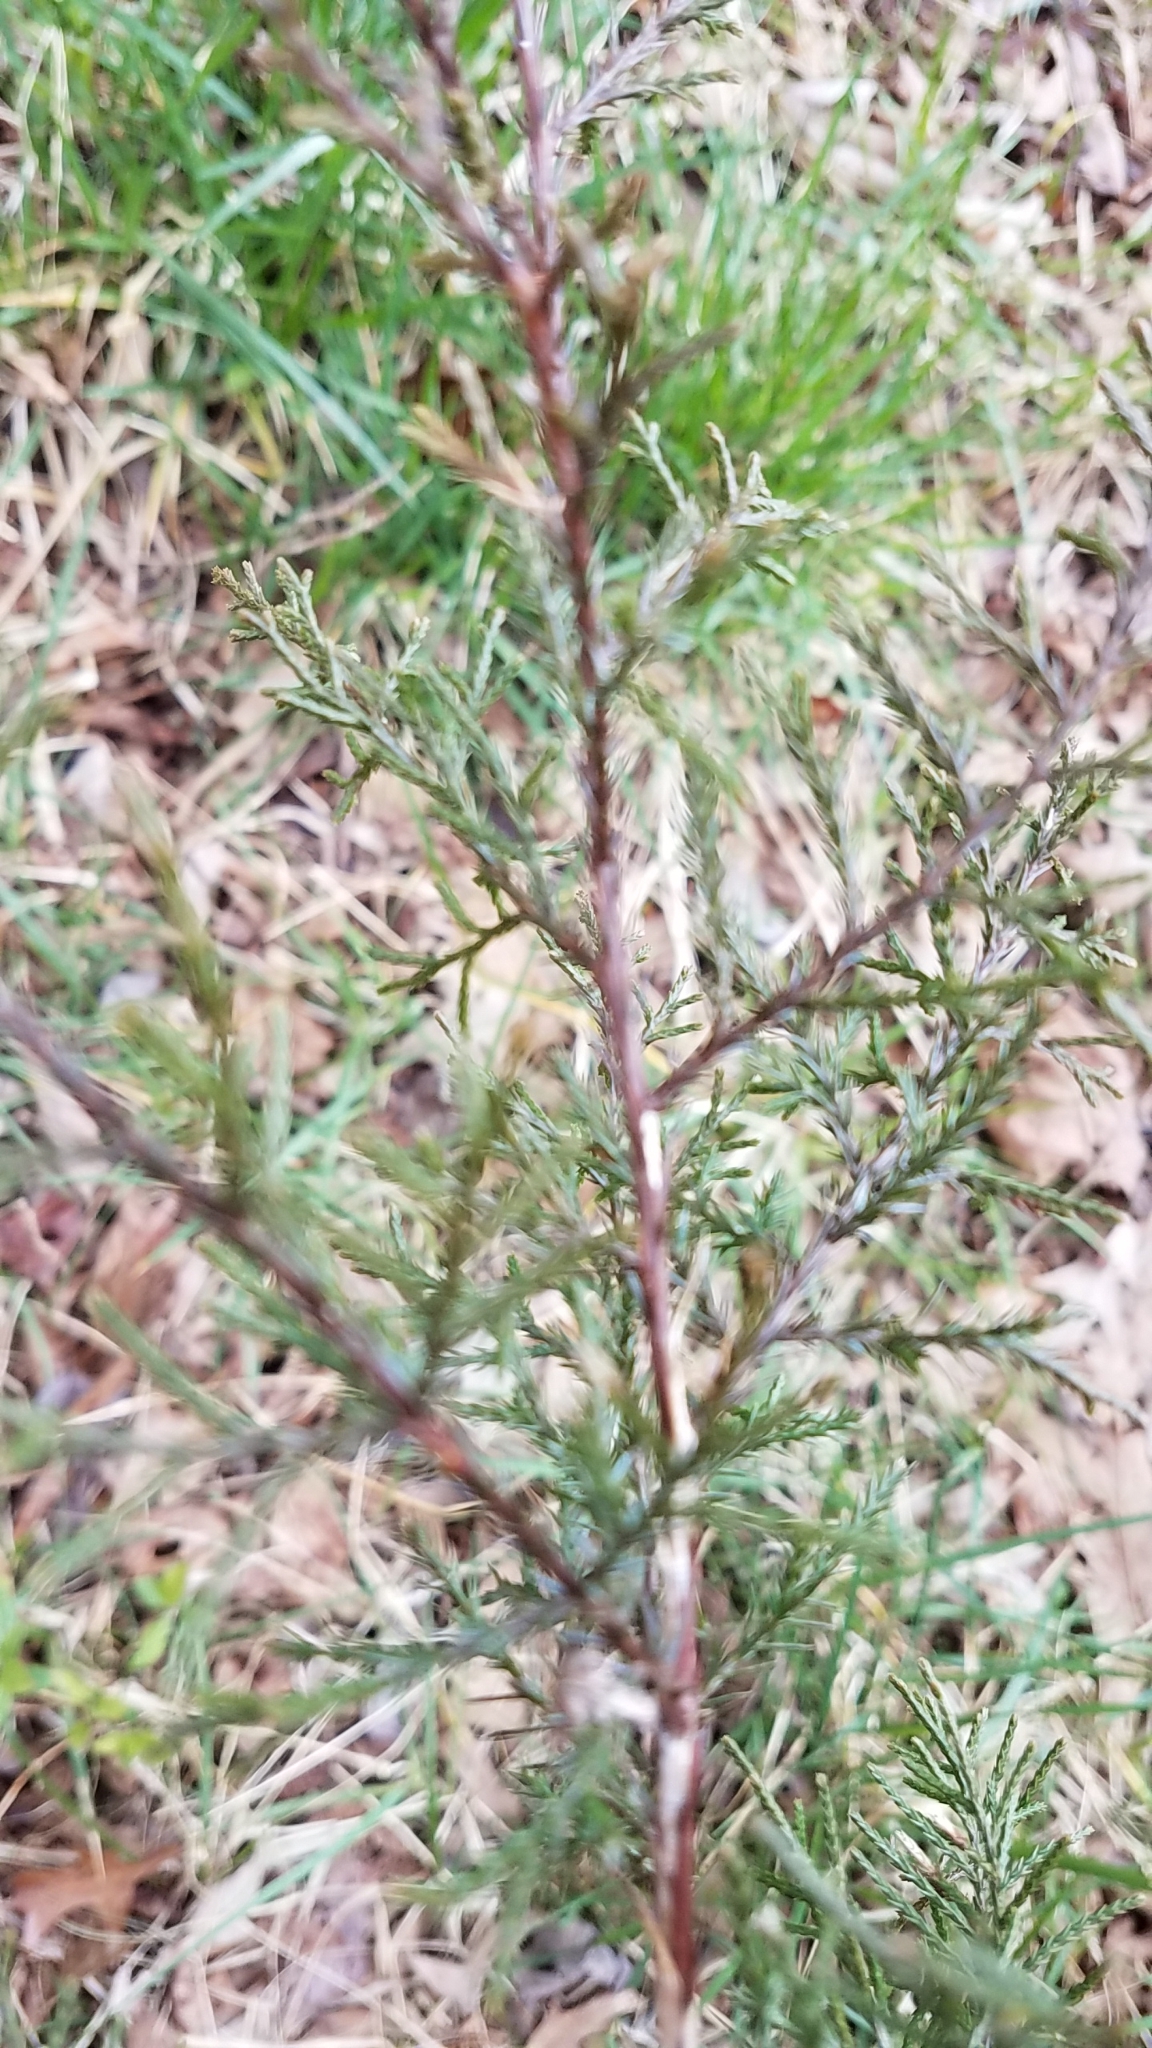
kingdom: Plantae
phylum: Tracheophyta
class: Pinopsida
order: Pinales
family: Cupressaceae
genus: Juniperus
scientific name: Juniperus virginiana
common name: Red juniper
